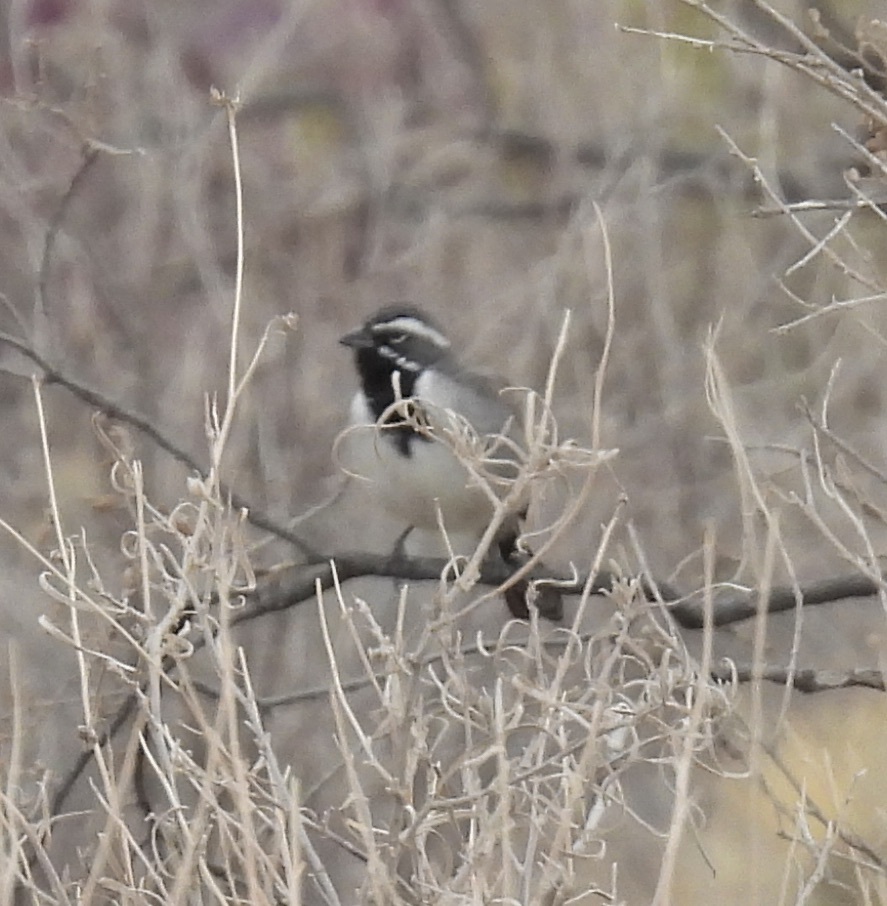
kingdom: Animalia
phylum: Chordata
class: Aves
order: Passeriformes
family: Passerellidae
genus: Amphispiza
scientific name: Amphispiza bilineata
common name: Black-throated sparrow
